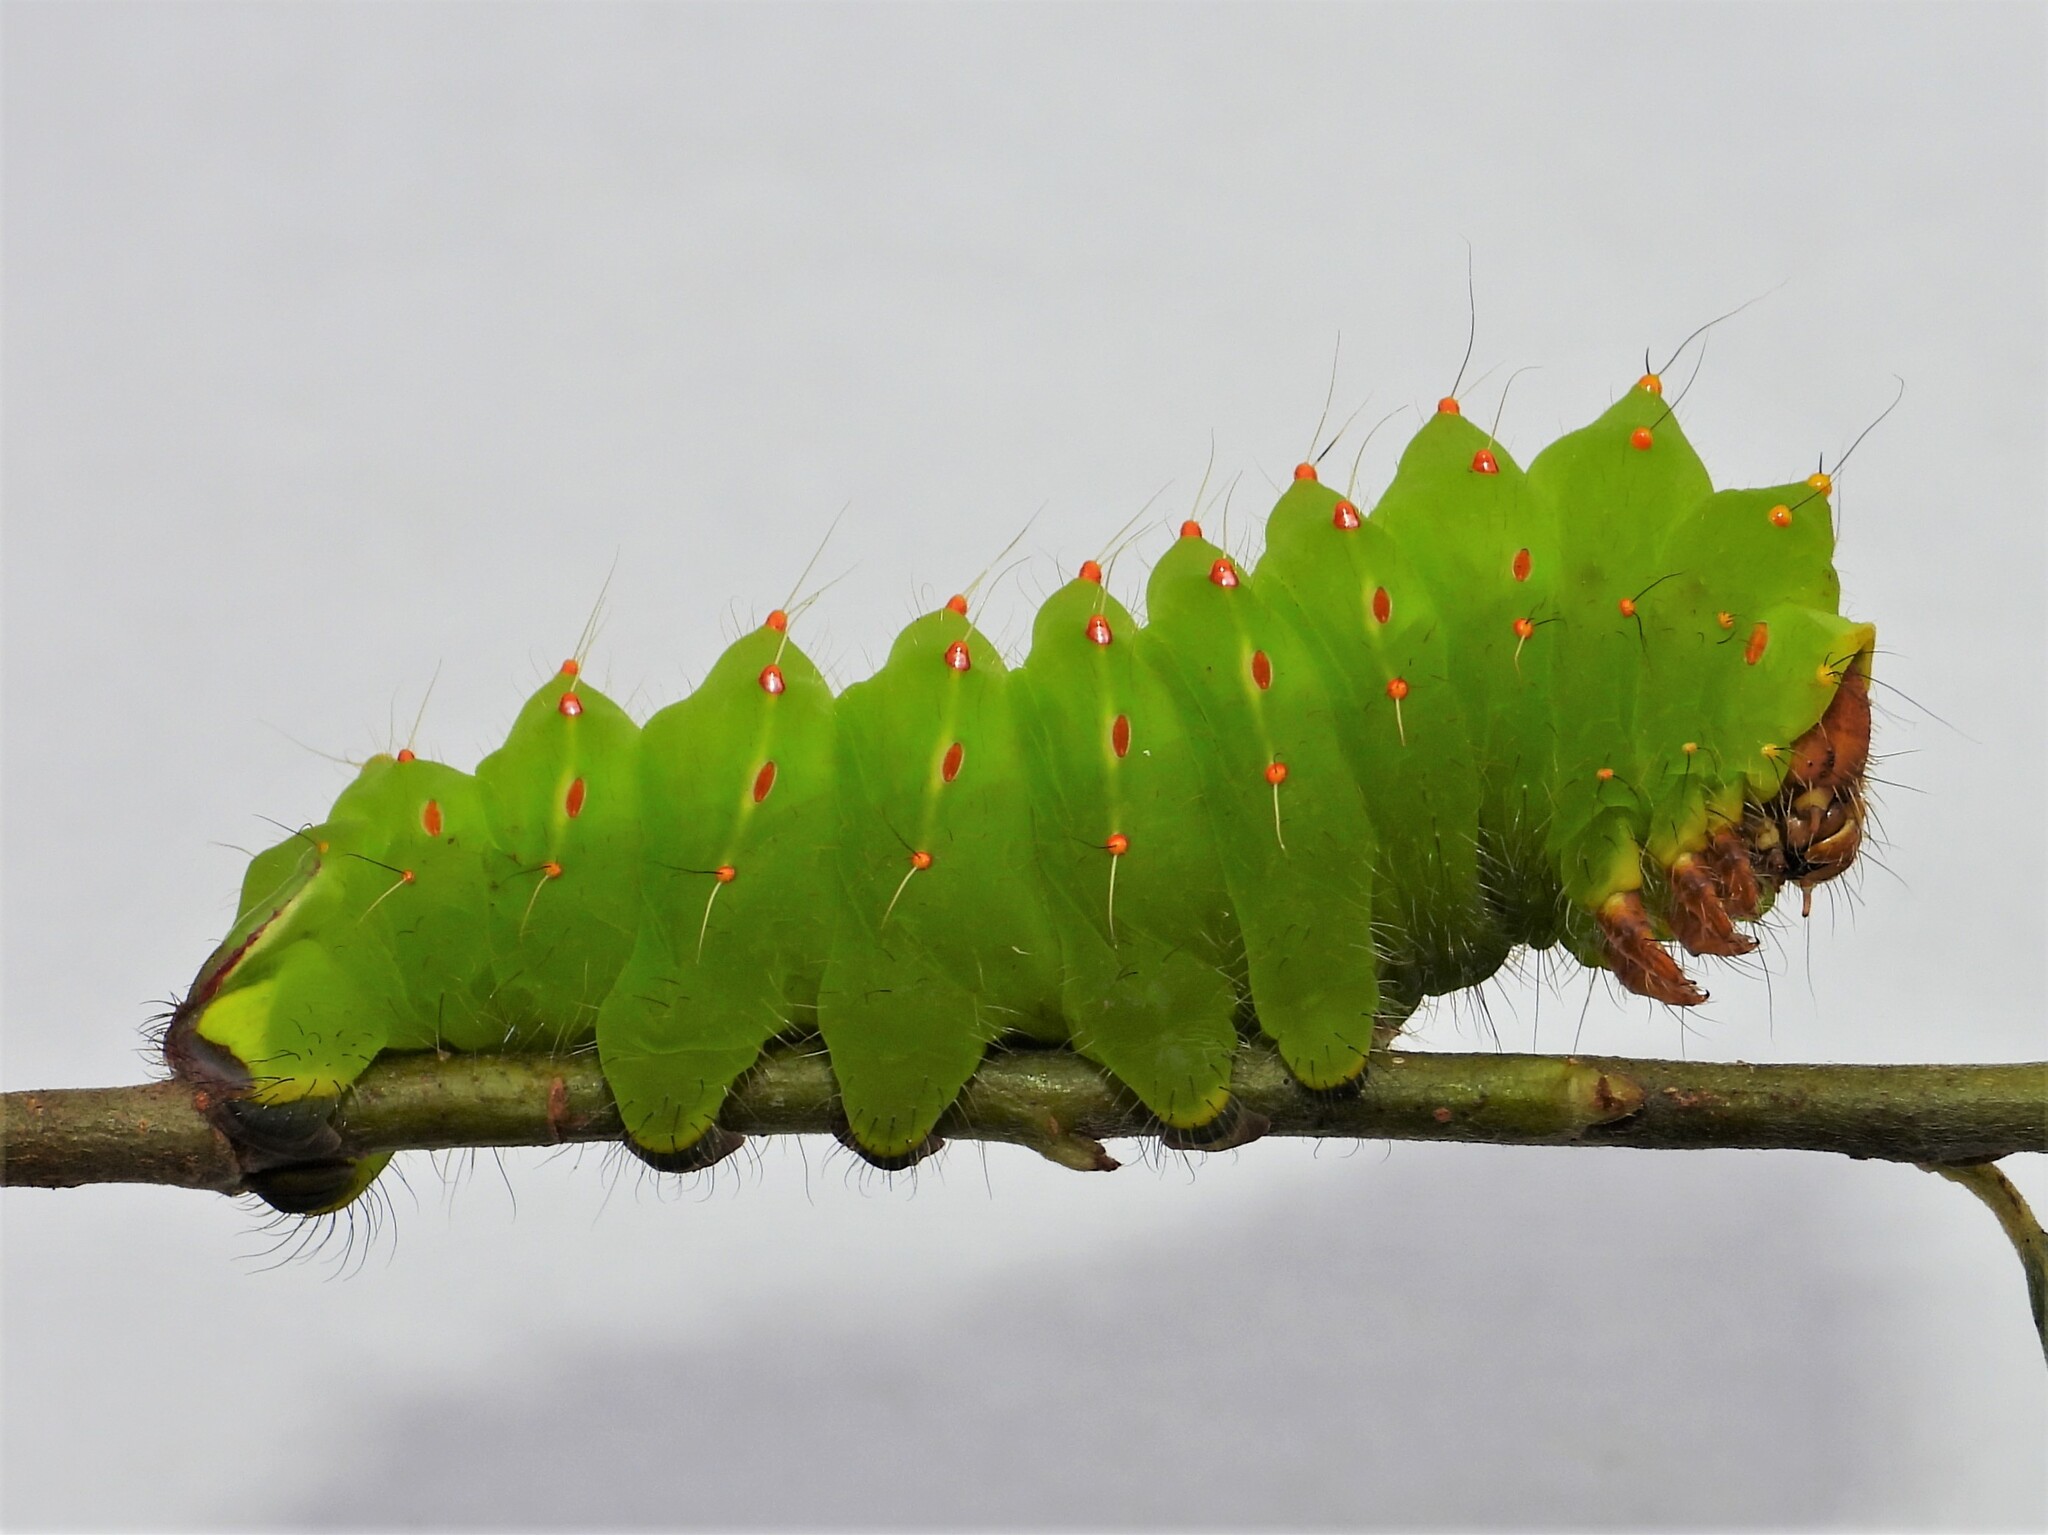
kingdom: Animalia
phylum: Arthropoda
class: Insecta
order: Lepidoptera
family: Saturniidae
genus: Antheraea
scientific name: Antheraea polyphemus
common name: Polyphemus moth
